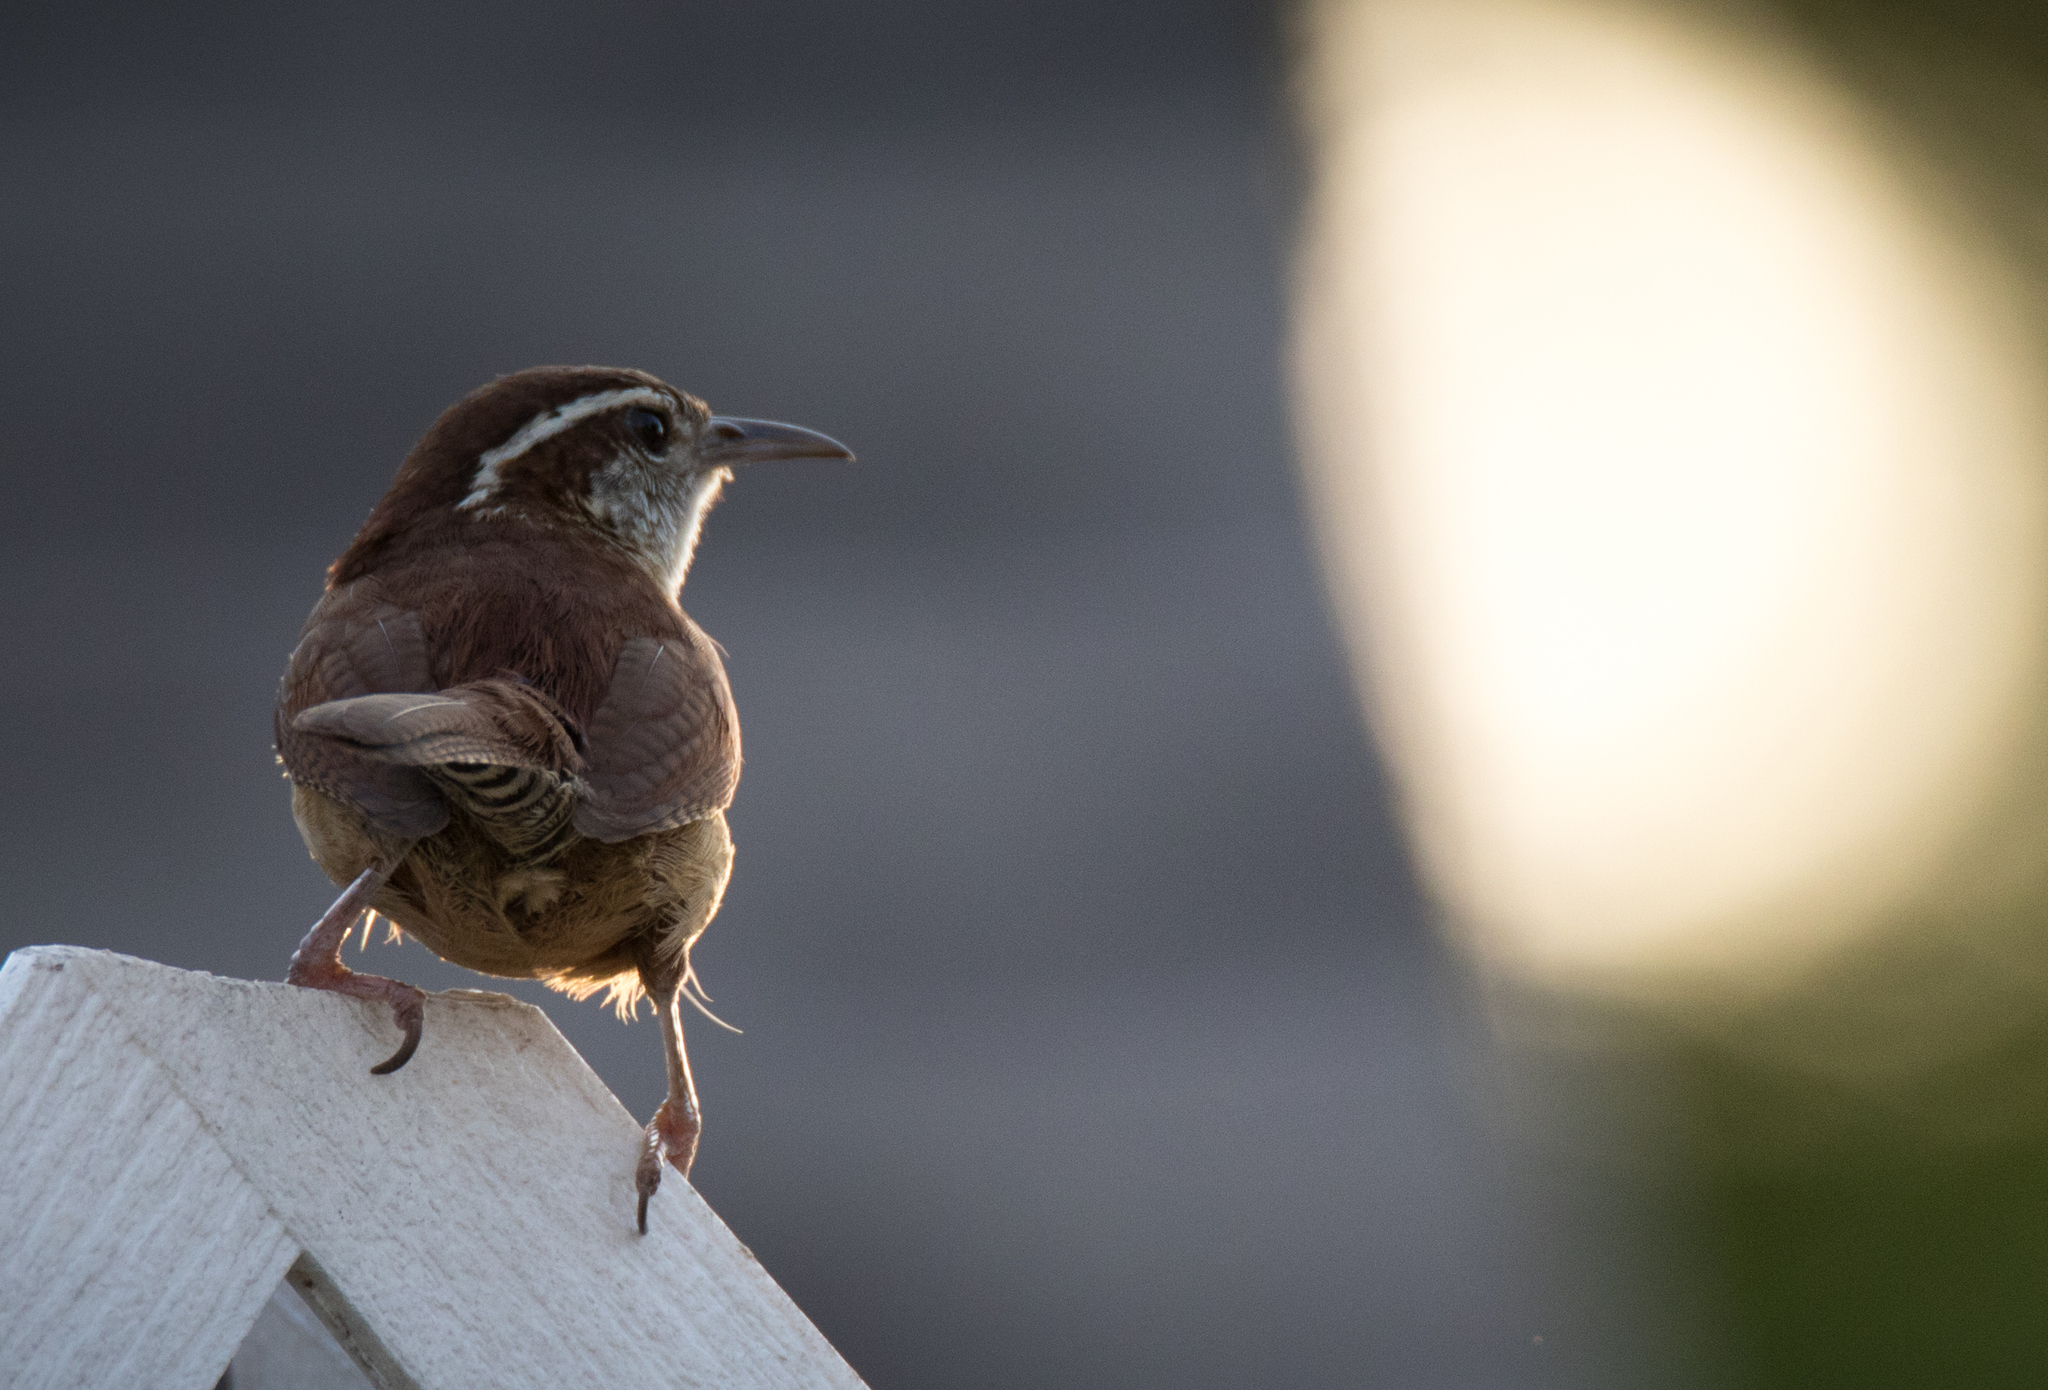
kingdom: Animalia
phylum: Chordata
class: Aves
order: Passeriformes
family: Troglodytidae
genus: Thryothorus
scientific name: Thryothorus ludovicianus
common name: Carolina wren
